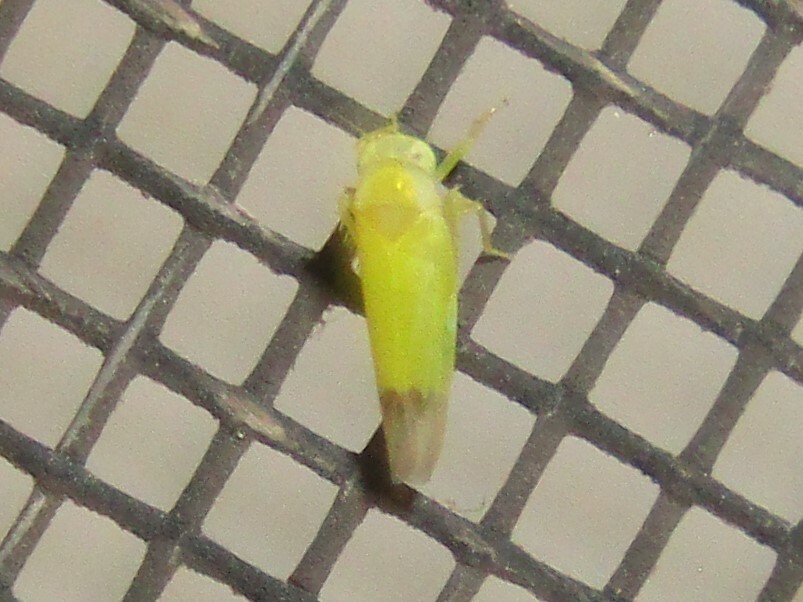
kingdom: Animalia
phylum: Arthropoda
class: Insecta
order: Hemiptera
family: Cicadellidae
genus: Alebra
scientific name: Alebra bicincta
